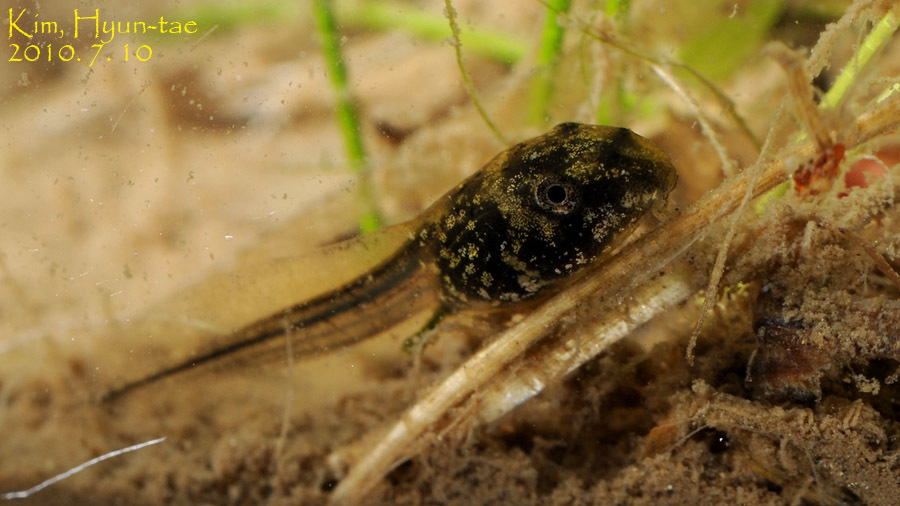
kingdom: Animalia
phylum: Chordata
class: Amphibia
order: Anura
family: Ranidae
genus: Lithobates
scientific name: Lithobates catesbeianus
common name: American bullfrog
